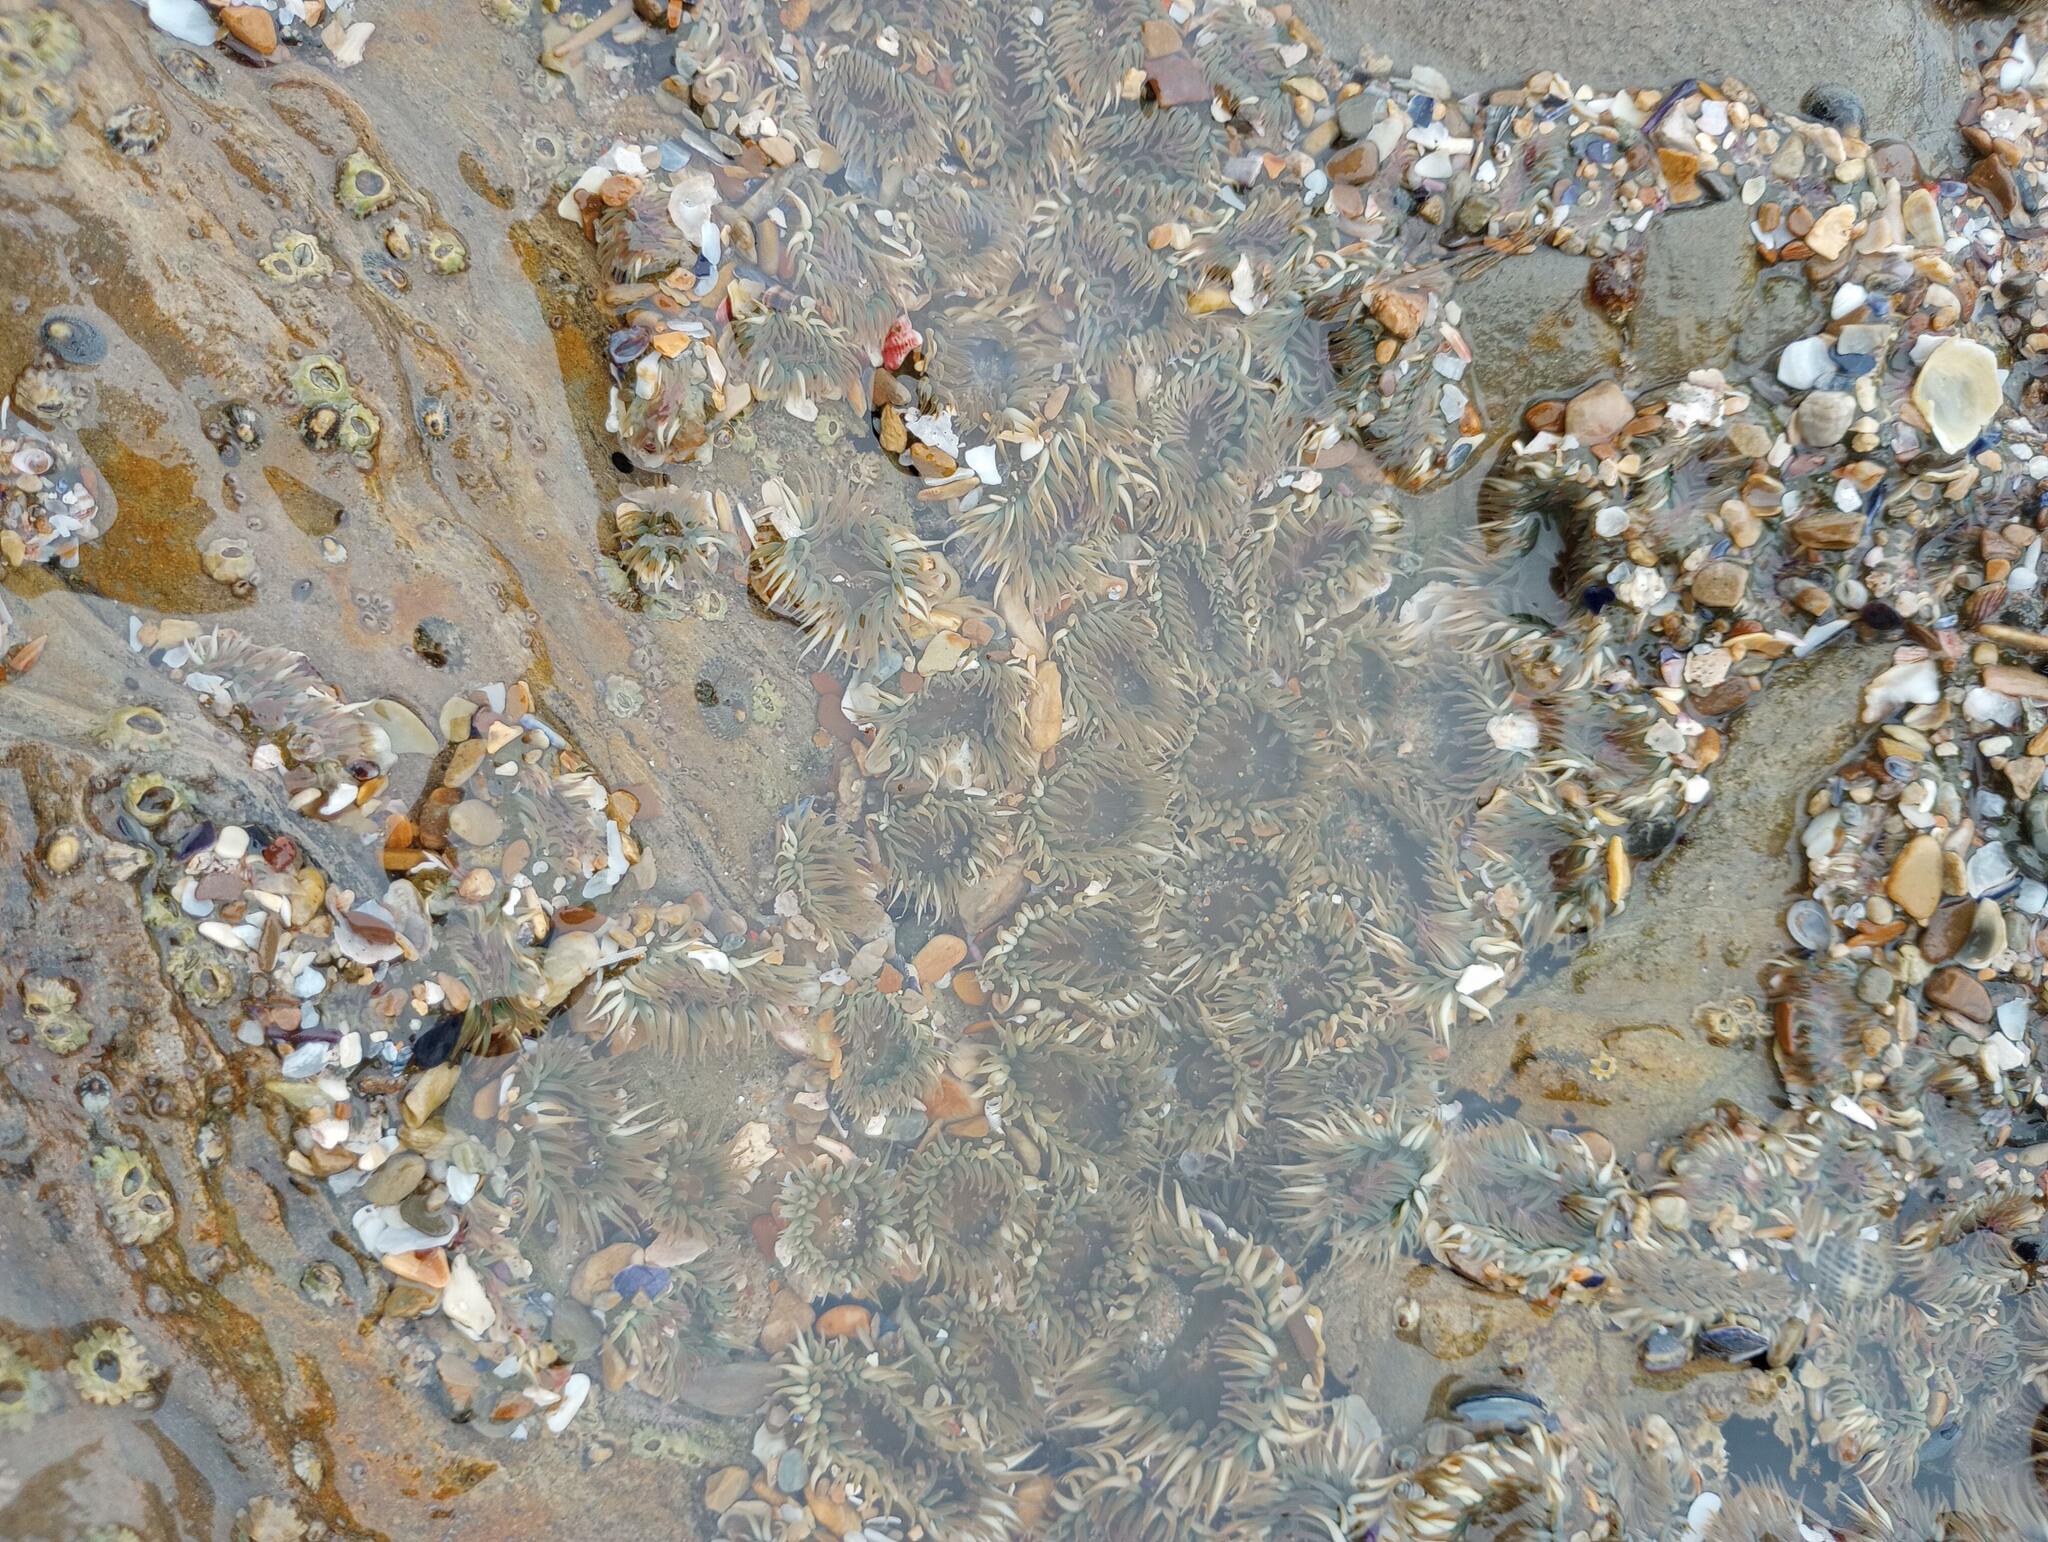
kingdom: Animalia
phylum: Cnidaria
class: Anthozoa
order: Actiniaria
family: Actiniidae
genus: Anthopleura
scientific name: Anthopleura elegantissima
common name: Clonal anemone
